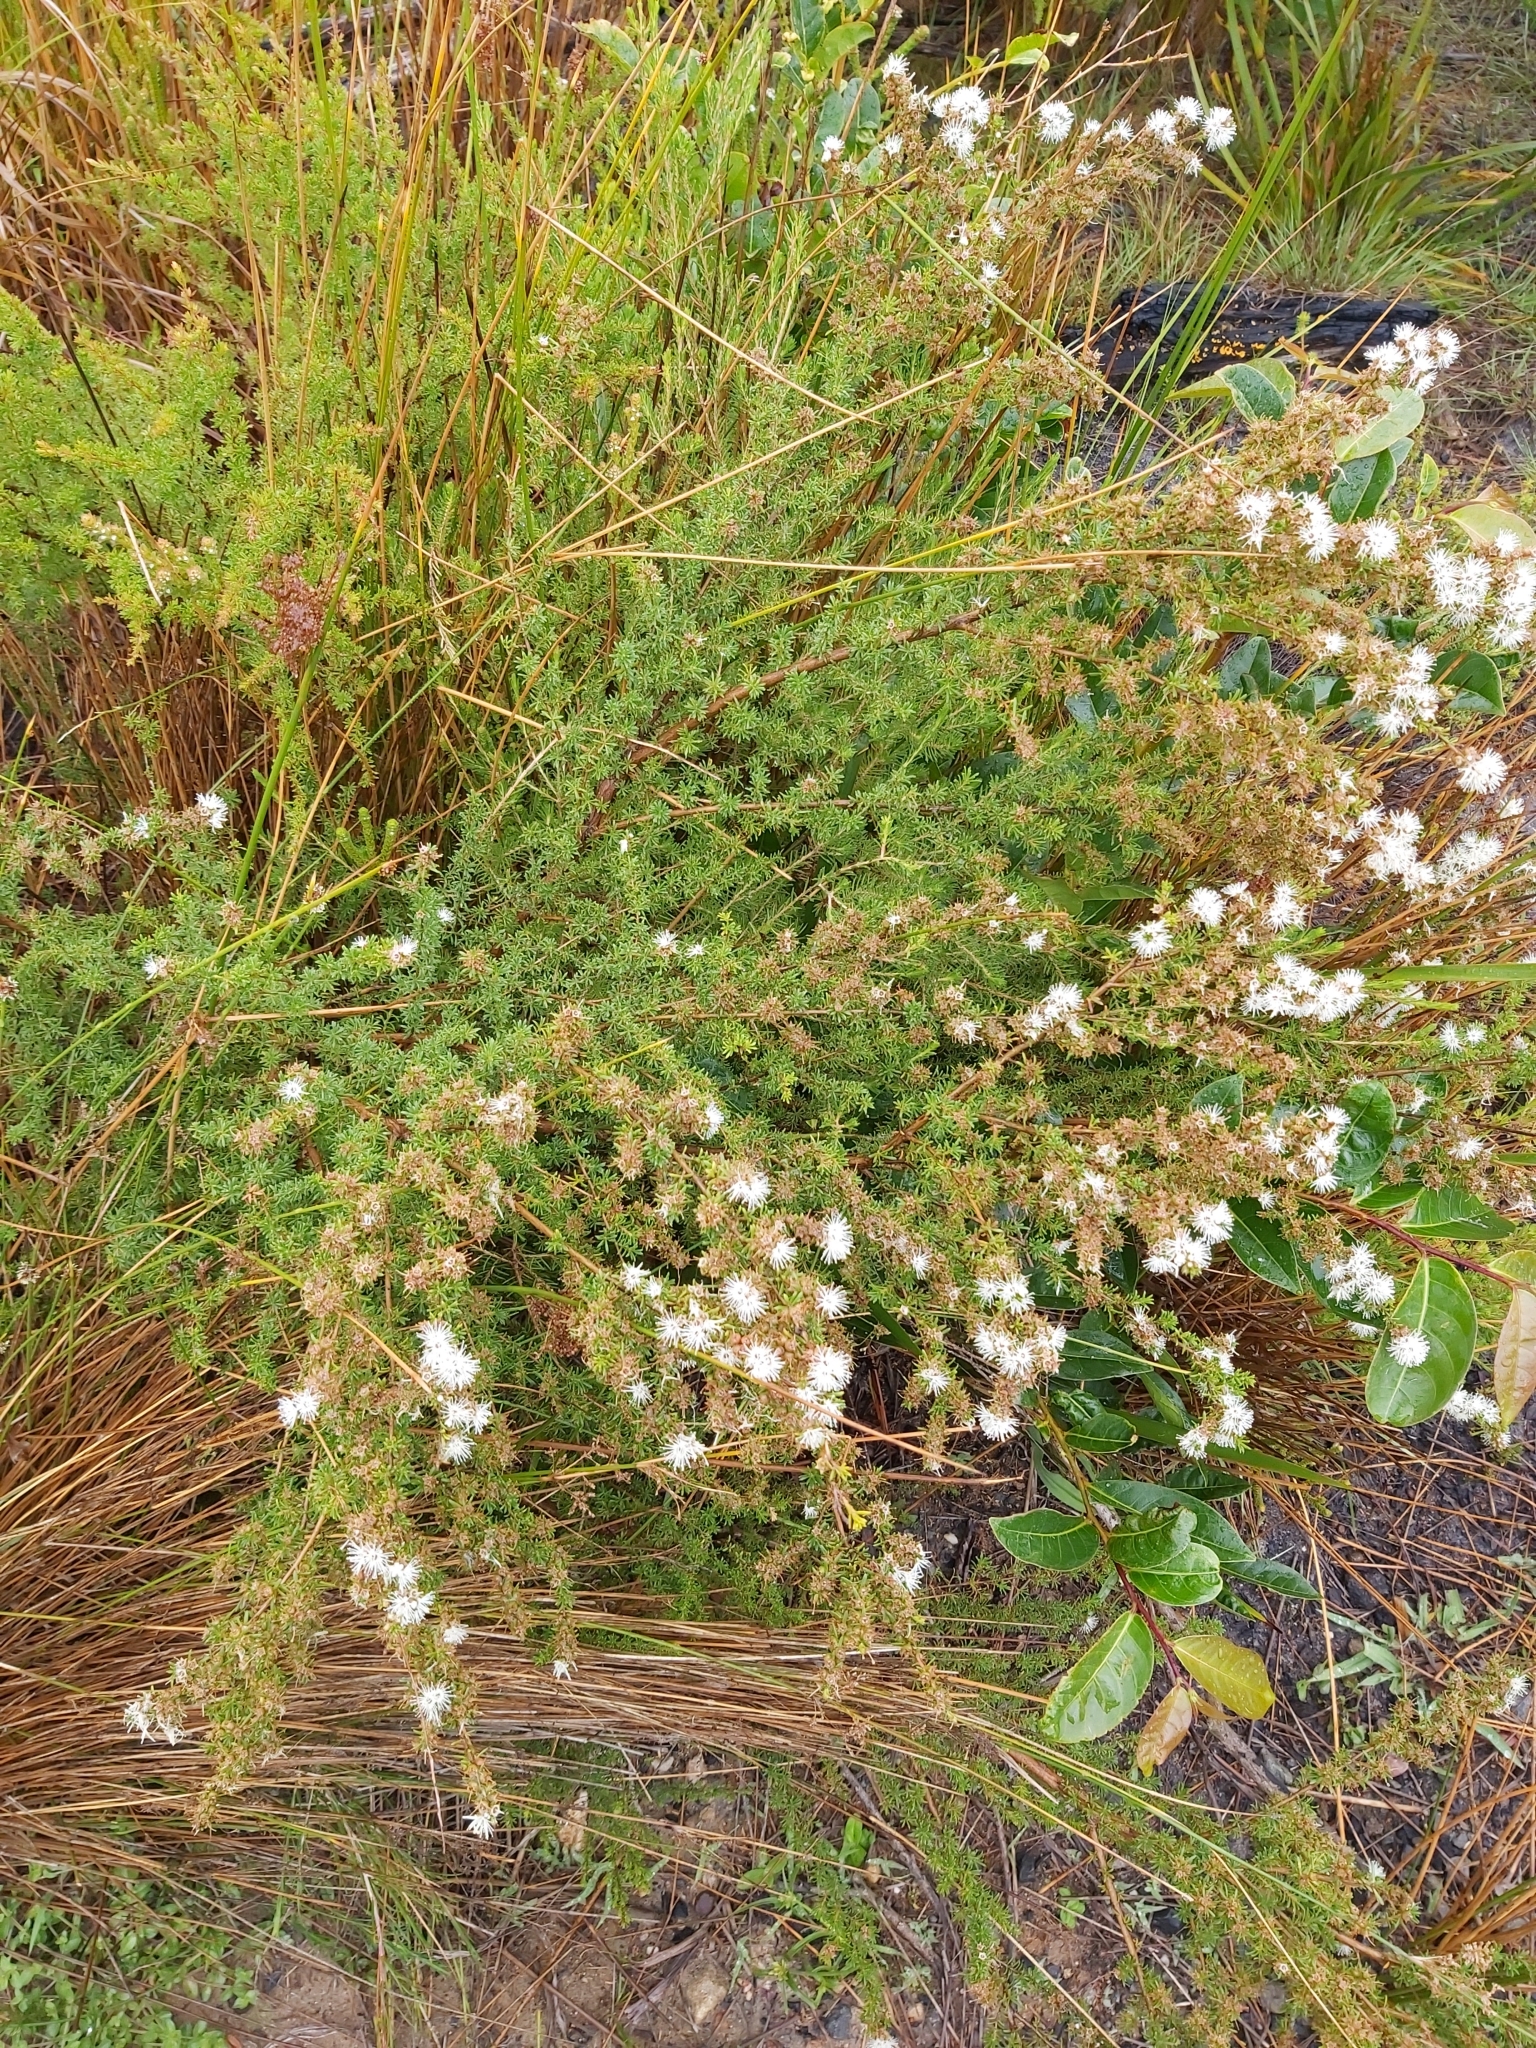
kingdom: Plantae
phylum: Tracheophyta
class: Magnoliopsida
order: Myrtales
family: Myrtaceae
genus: Kunzea
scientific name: Kunzea ambigua
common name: Tickbush
